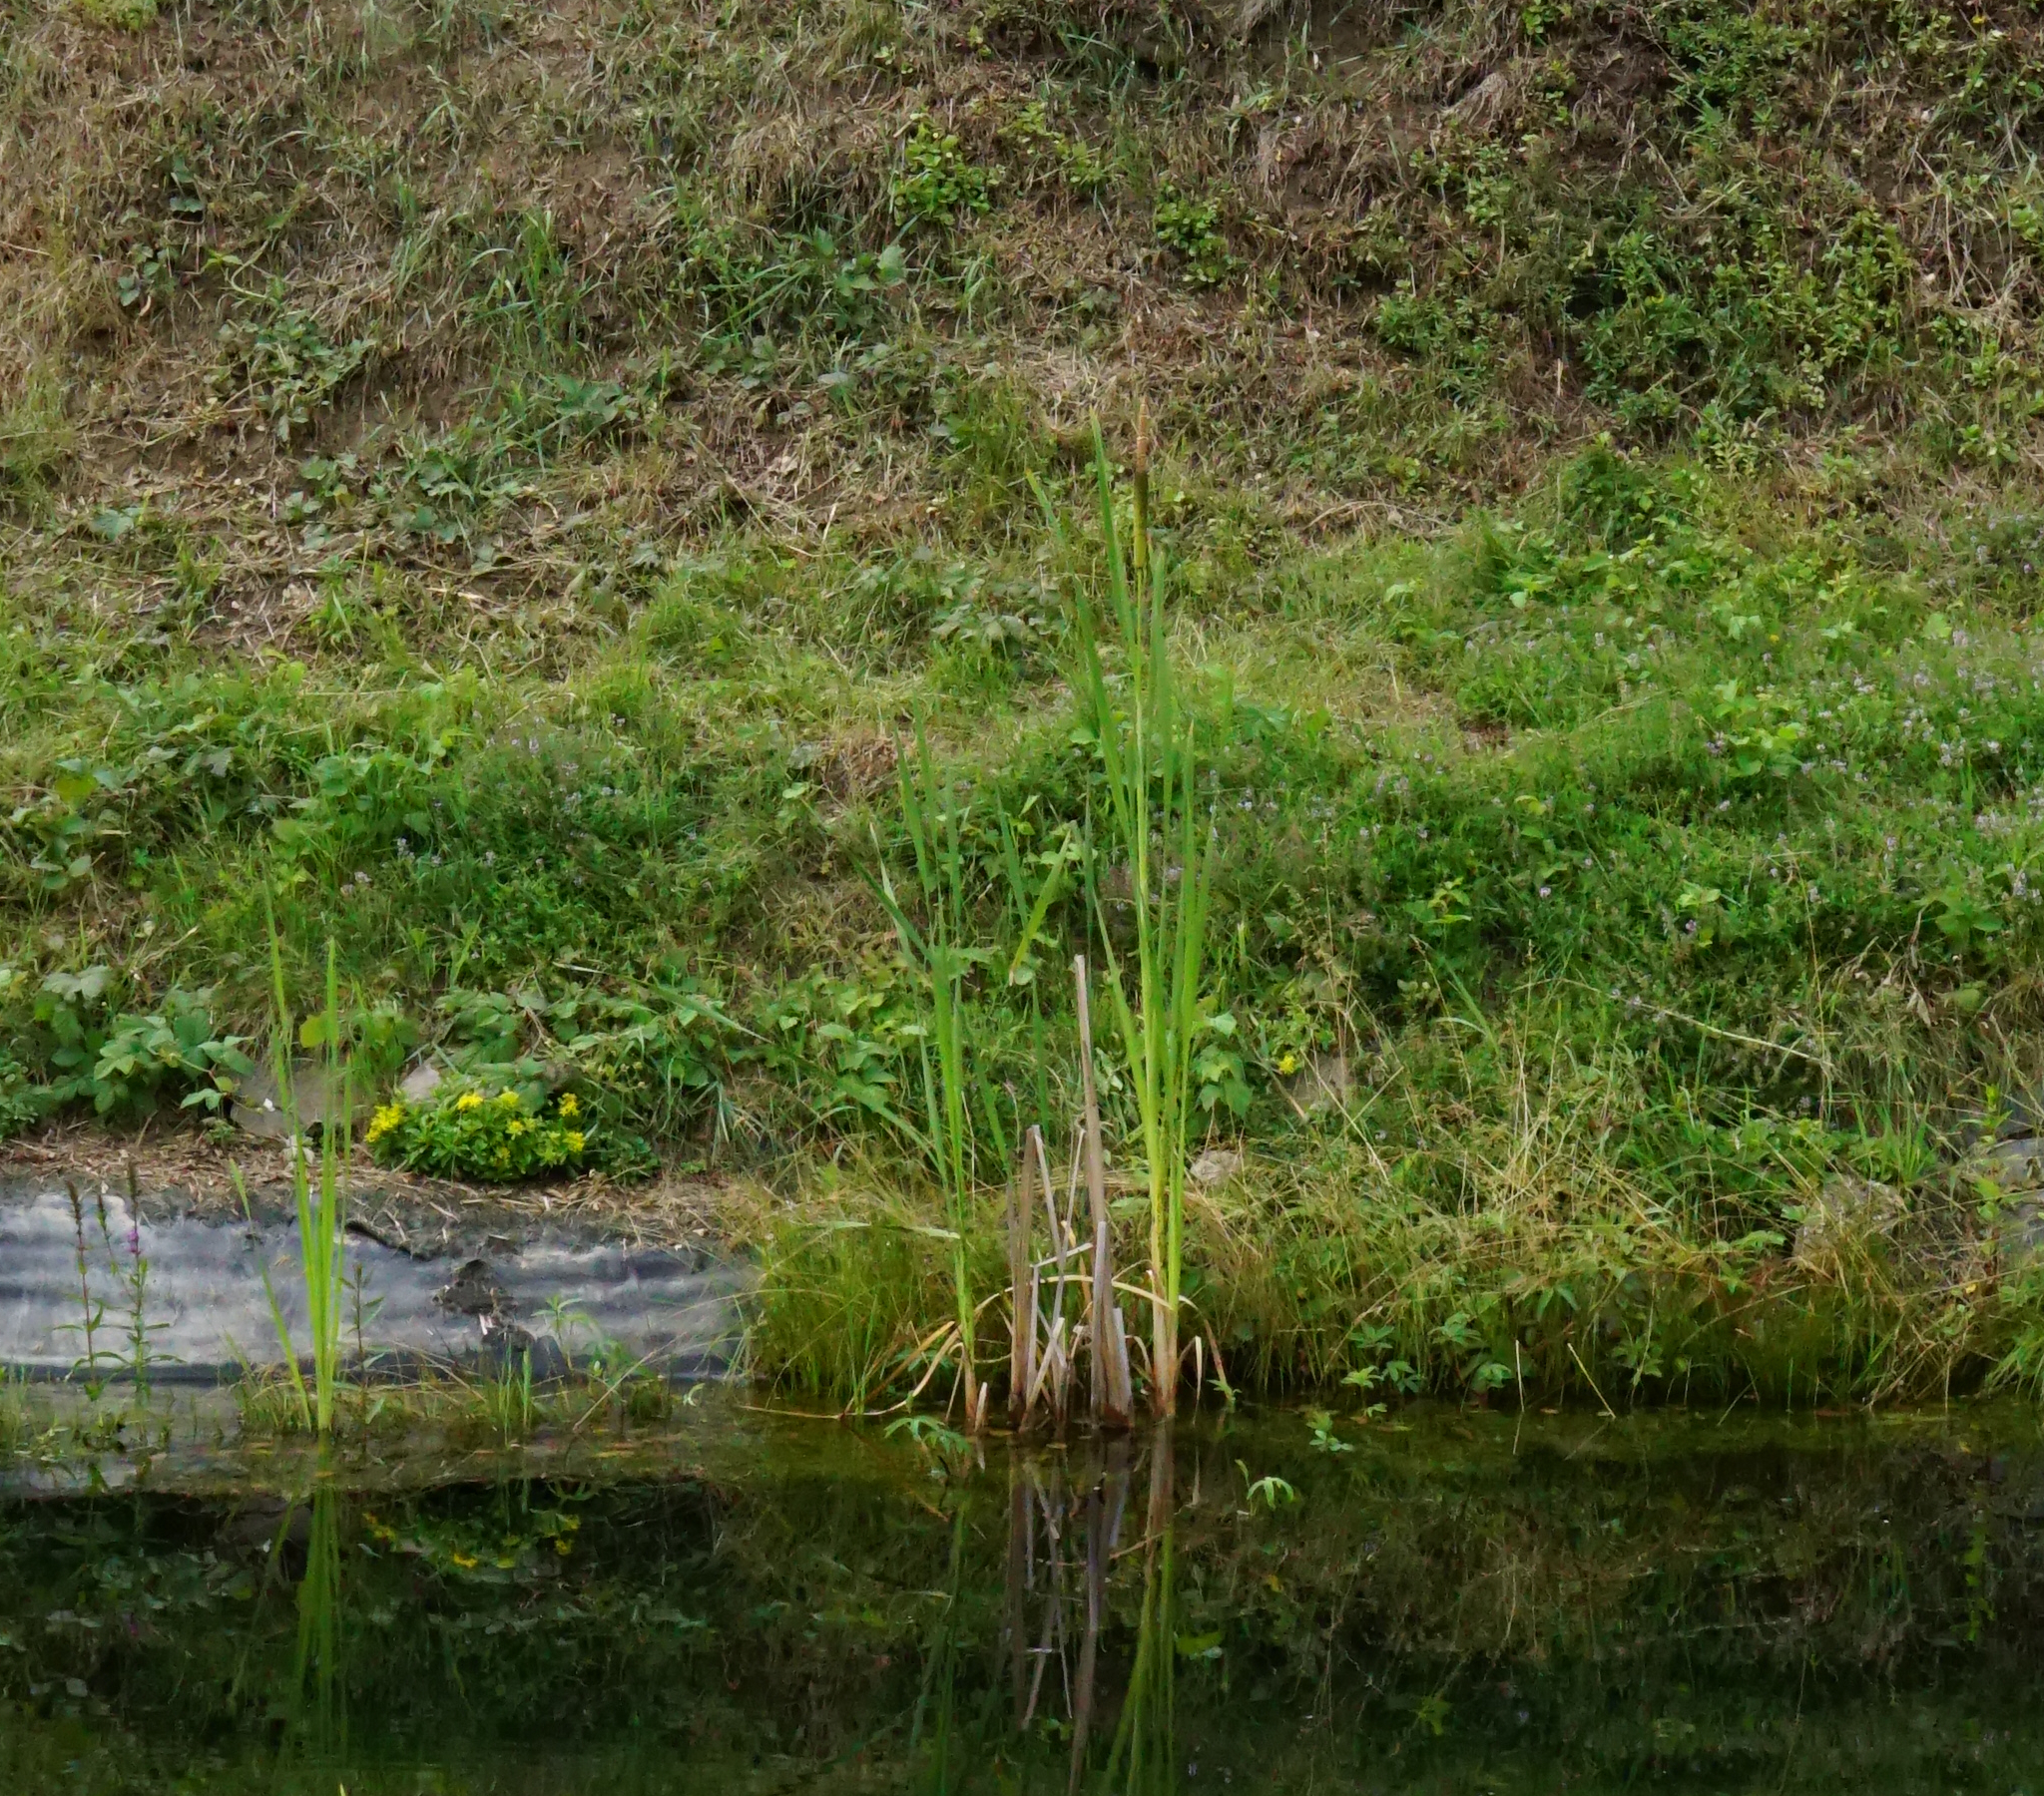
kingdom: Plantae
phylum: Tracheophyta
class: Liliopsida
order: Poales
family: Typhaceae
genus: Typha
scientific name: Typha latifolia
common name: Broadleaf cattail
